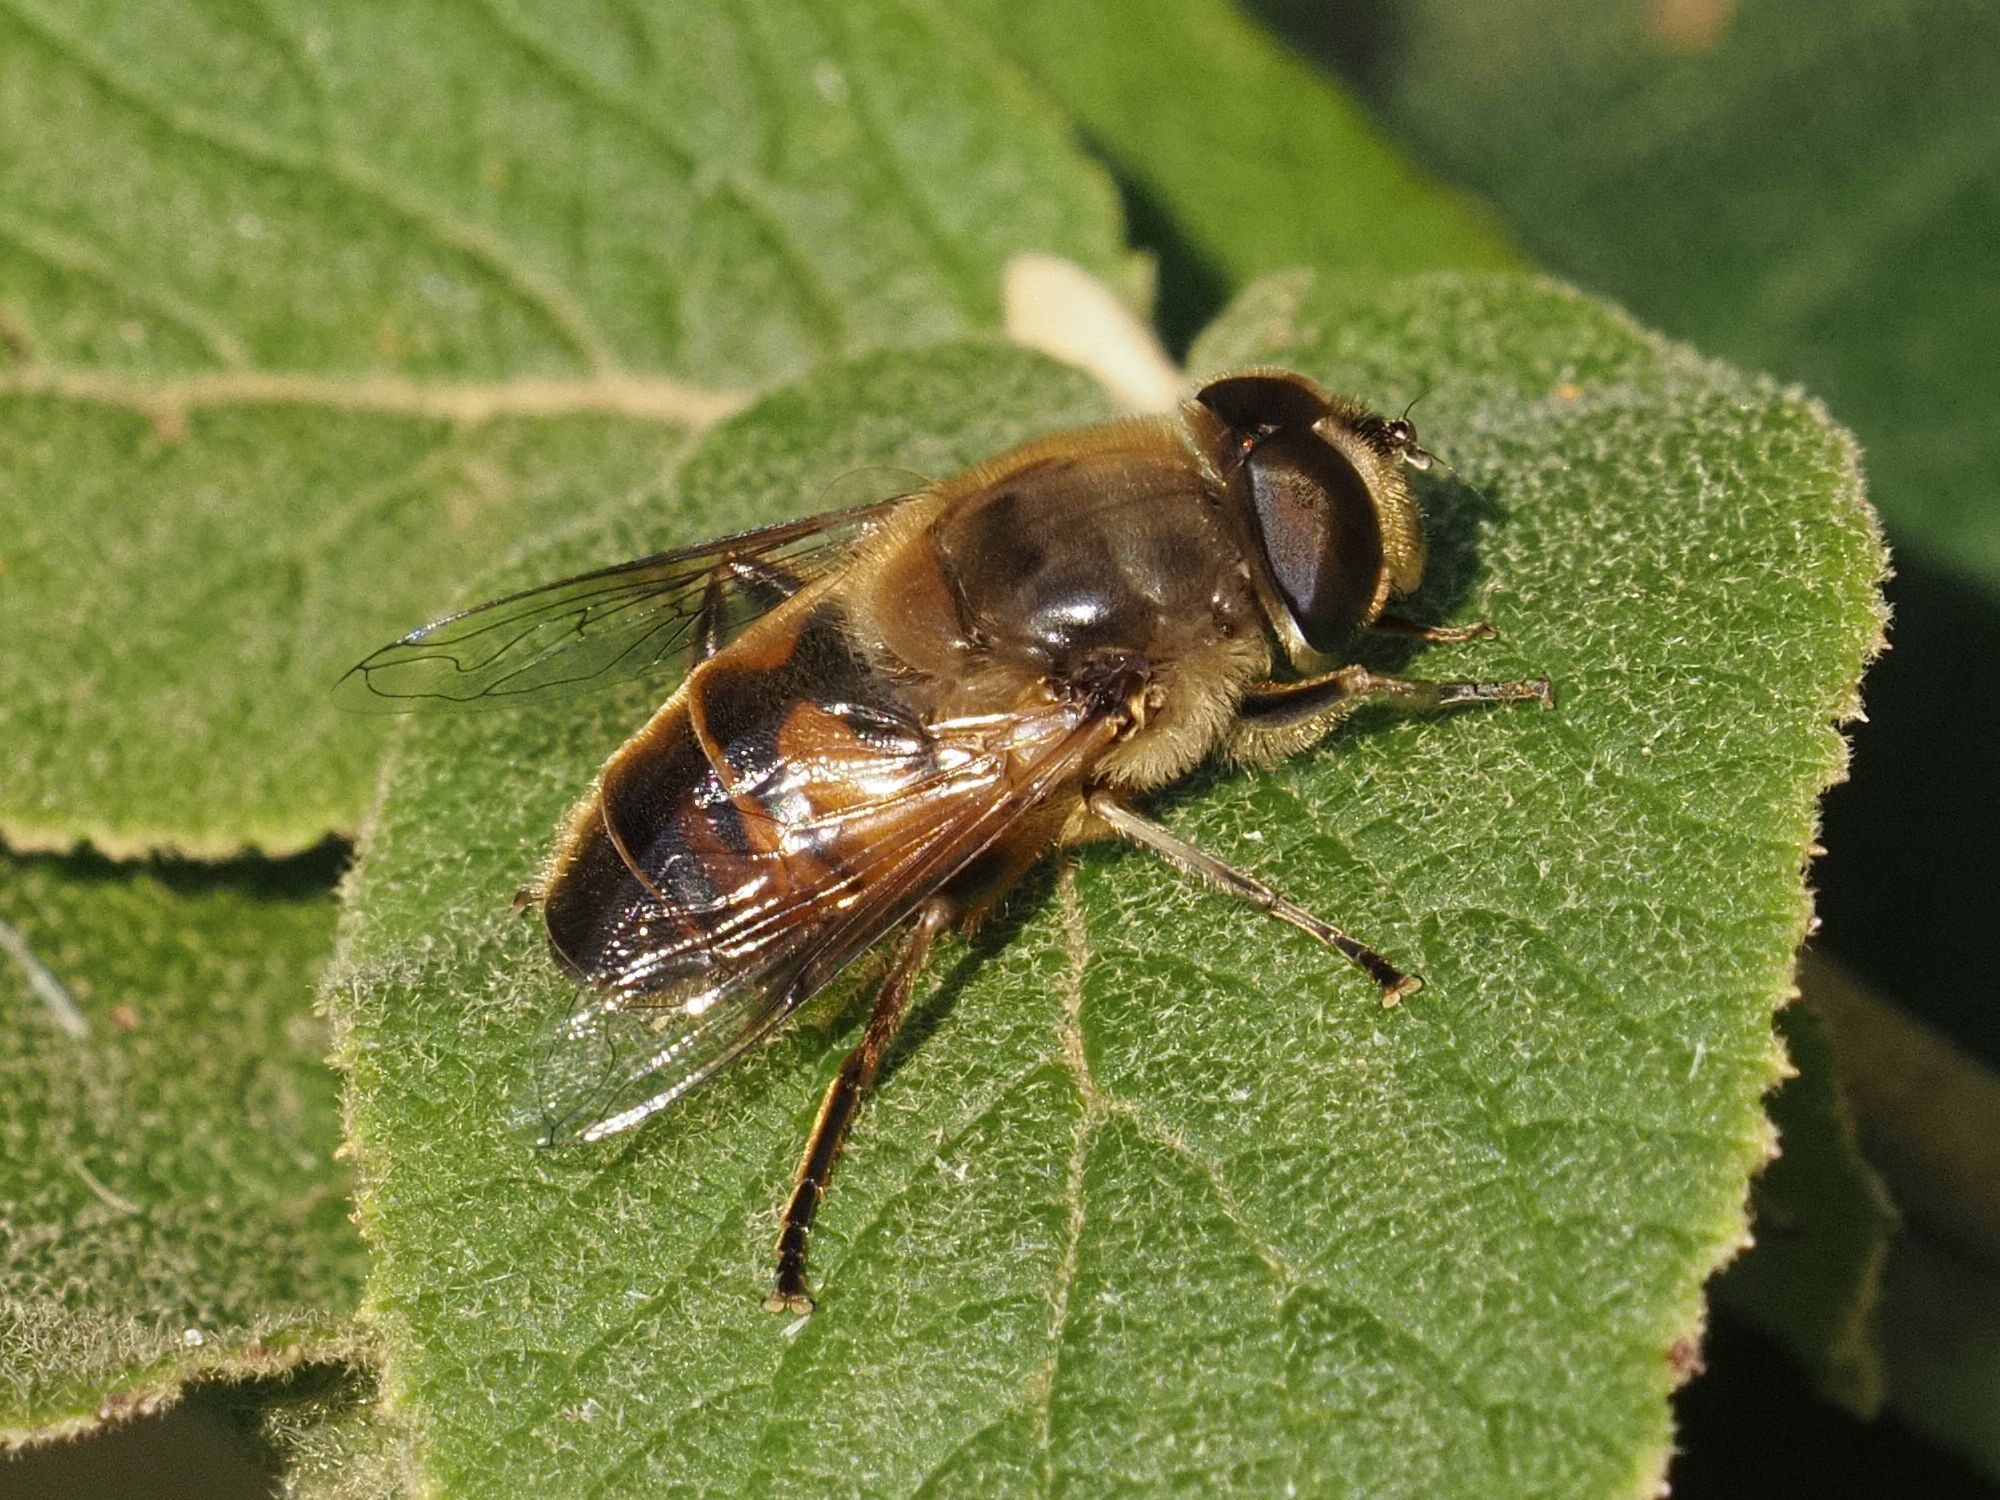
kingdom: Animalia
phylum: Arthropoda
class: Insecta
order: Diptera
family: Syrphidae
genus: Eristalis
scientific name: Eristalis tenax
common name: Drone fly
